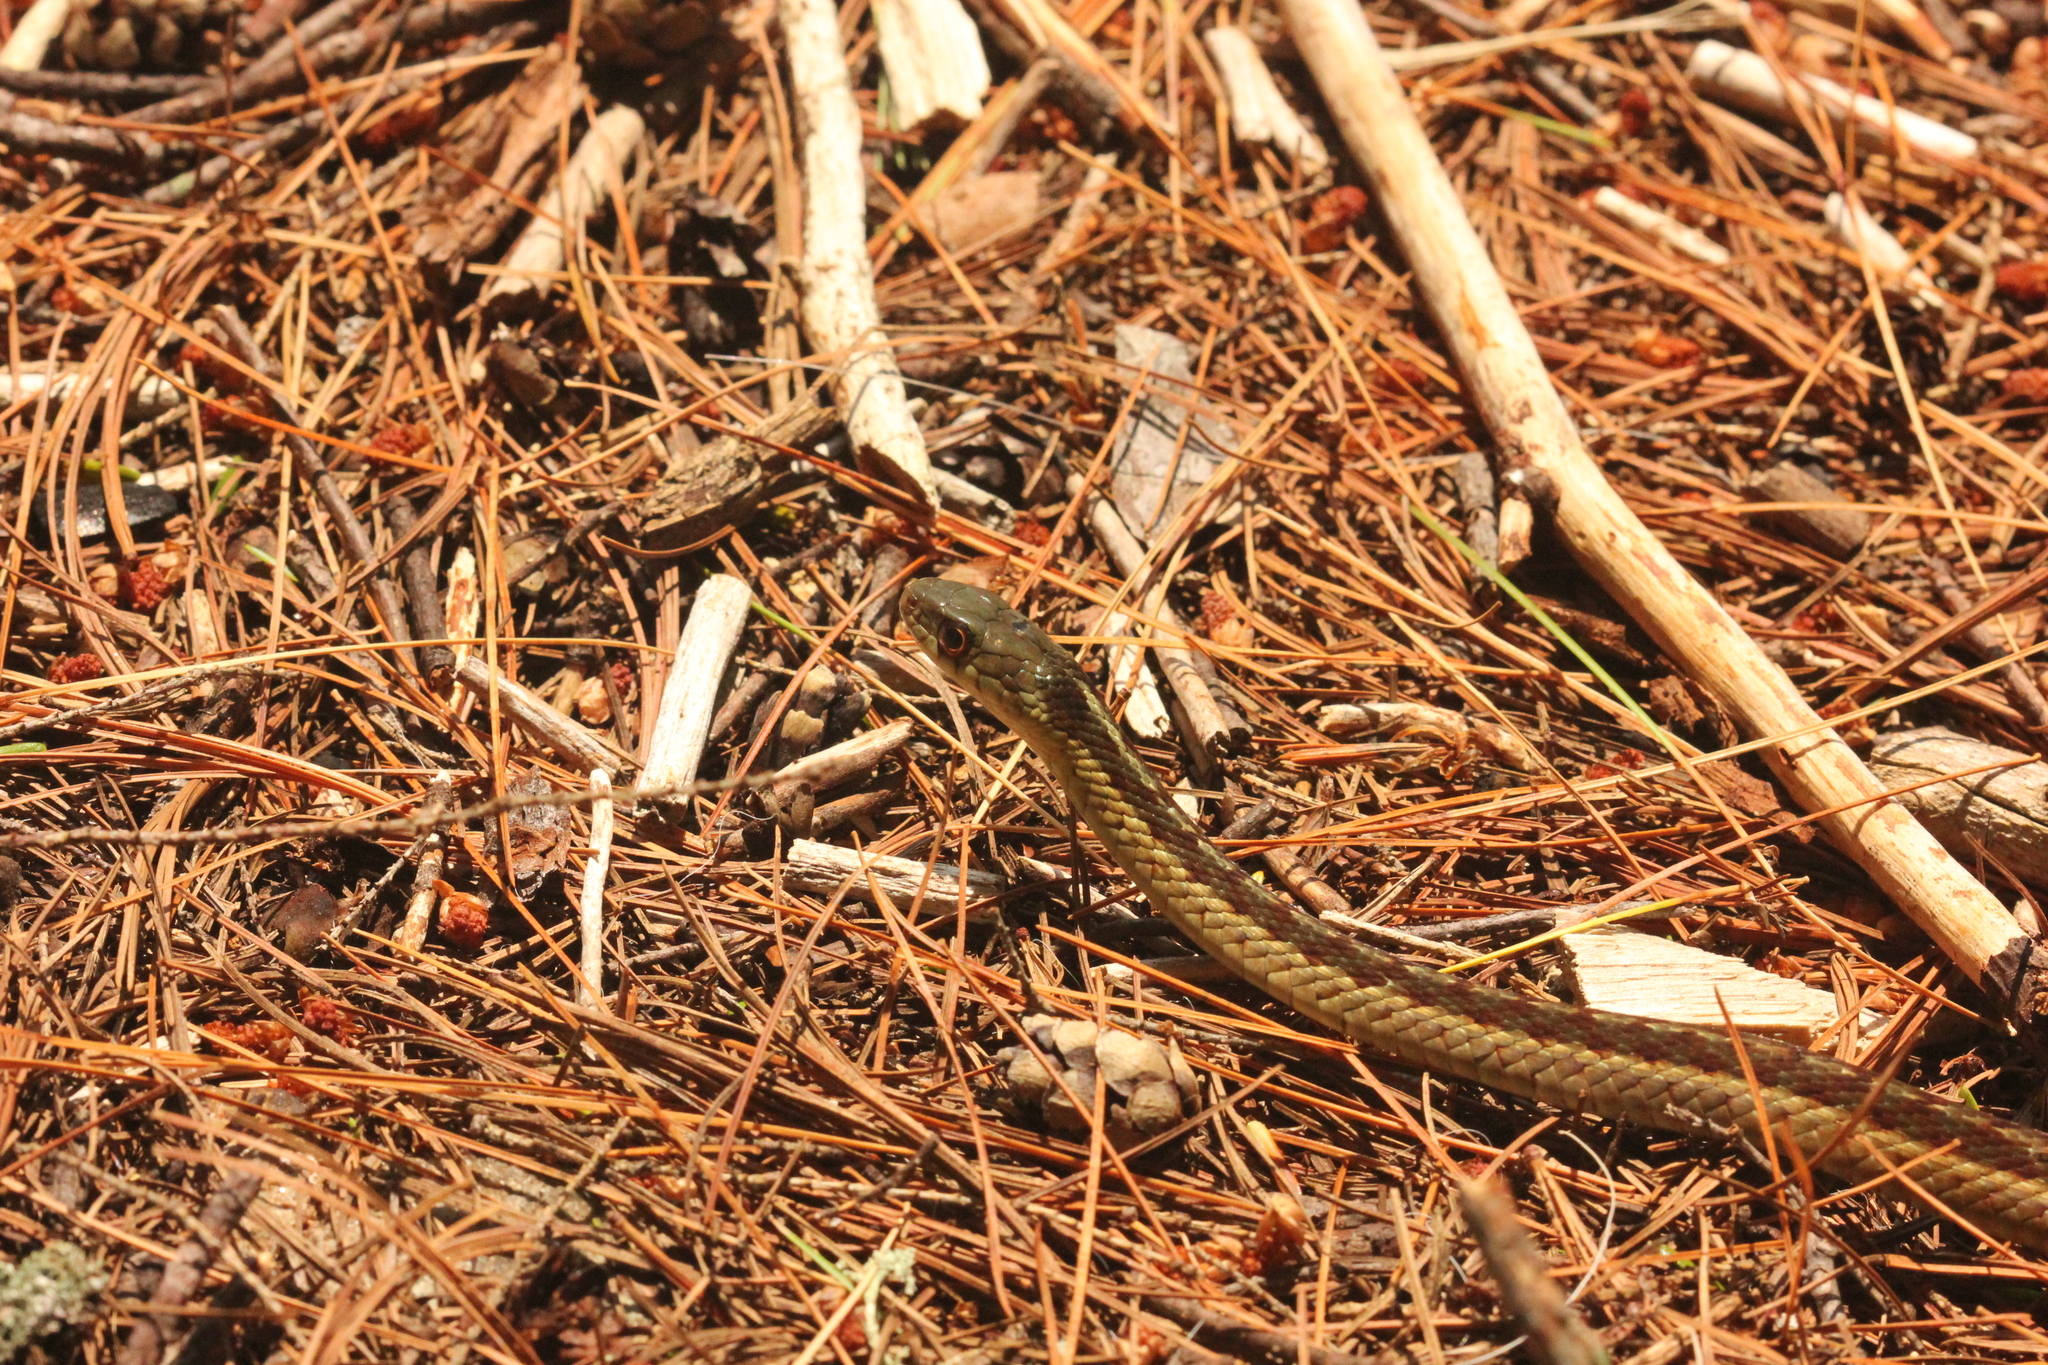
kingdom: Animalia
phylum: Chordata
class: Squamata
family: Colubridae
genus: Thamnophis
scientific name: Thamnophis sirtalis
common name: Common garter snake
